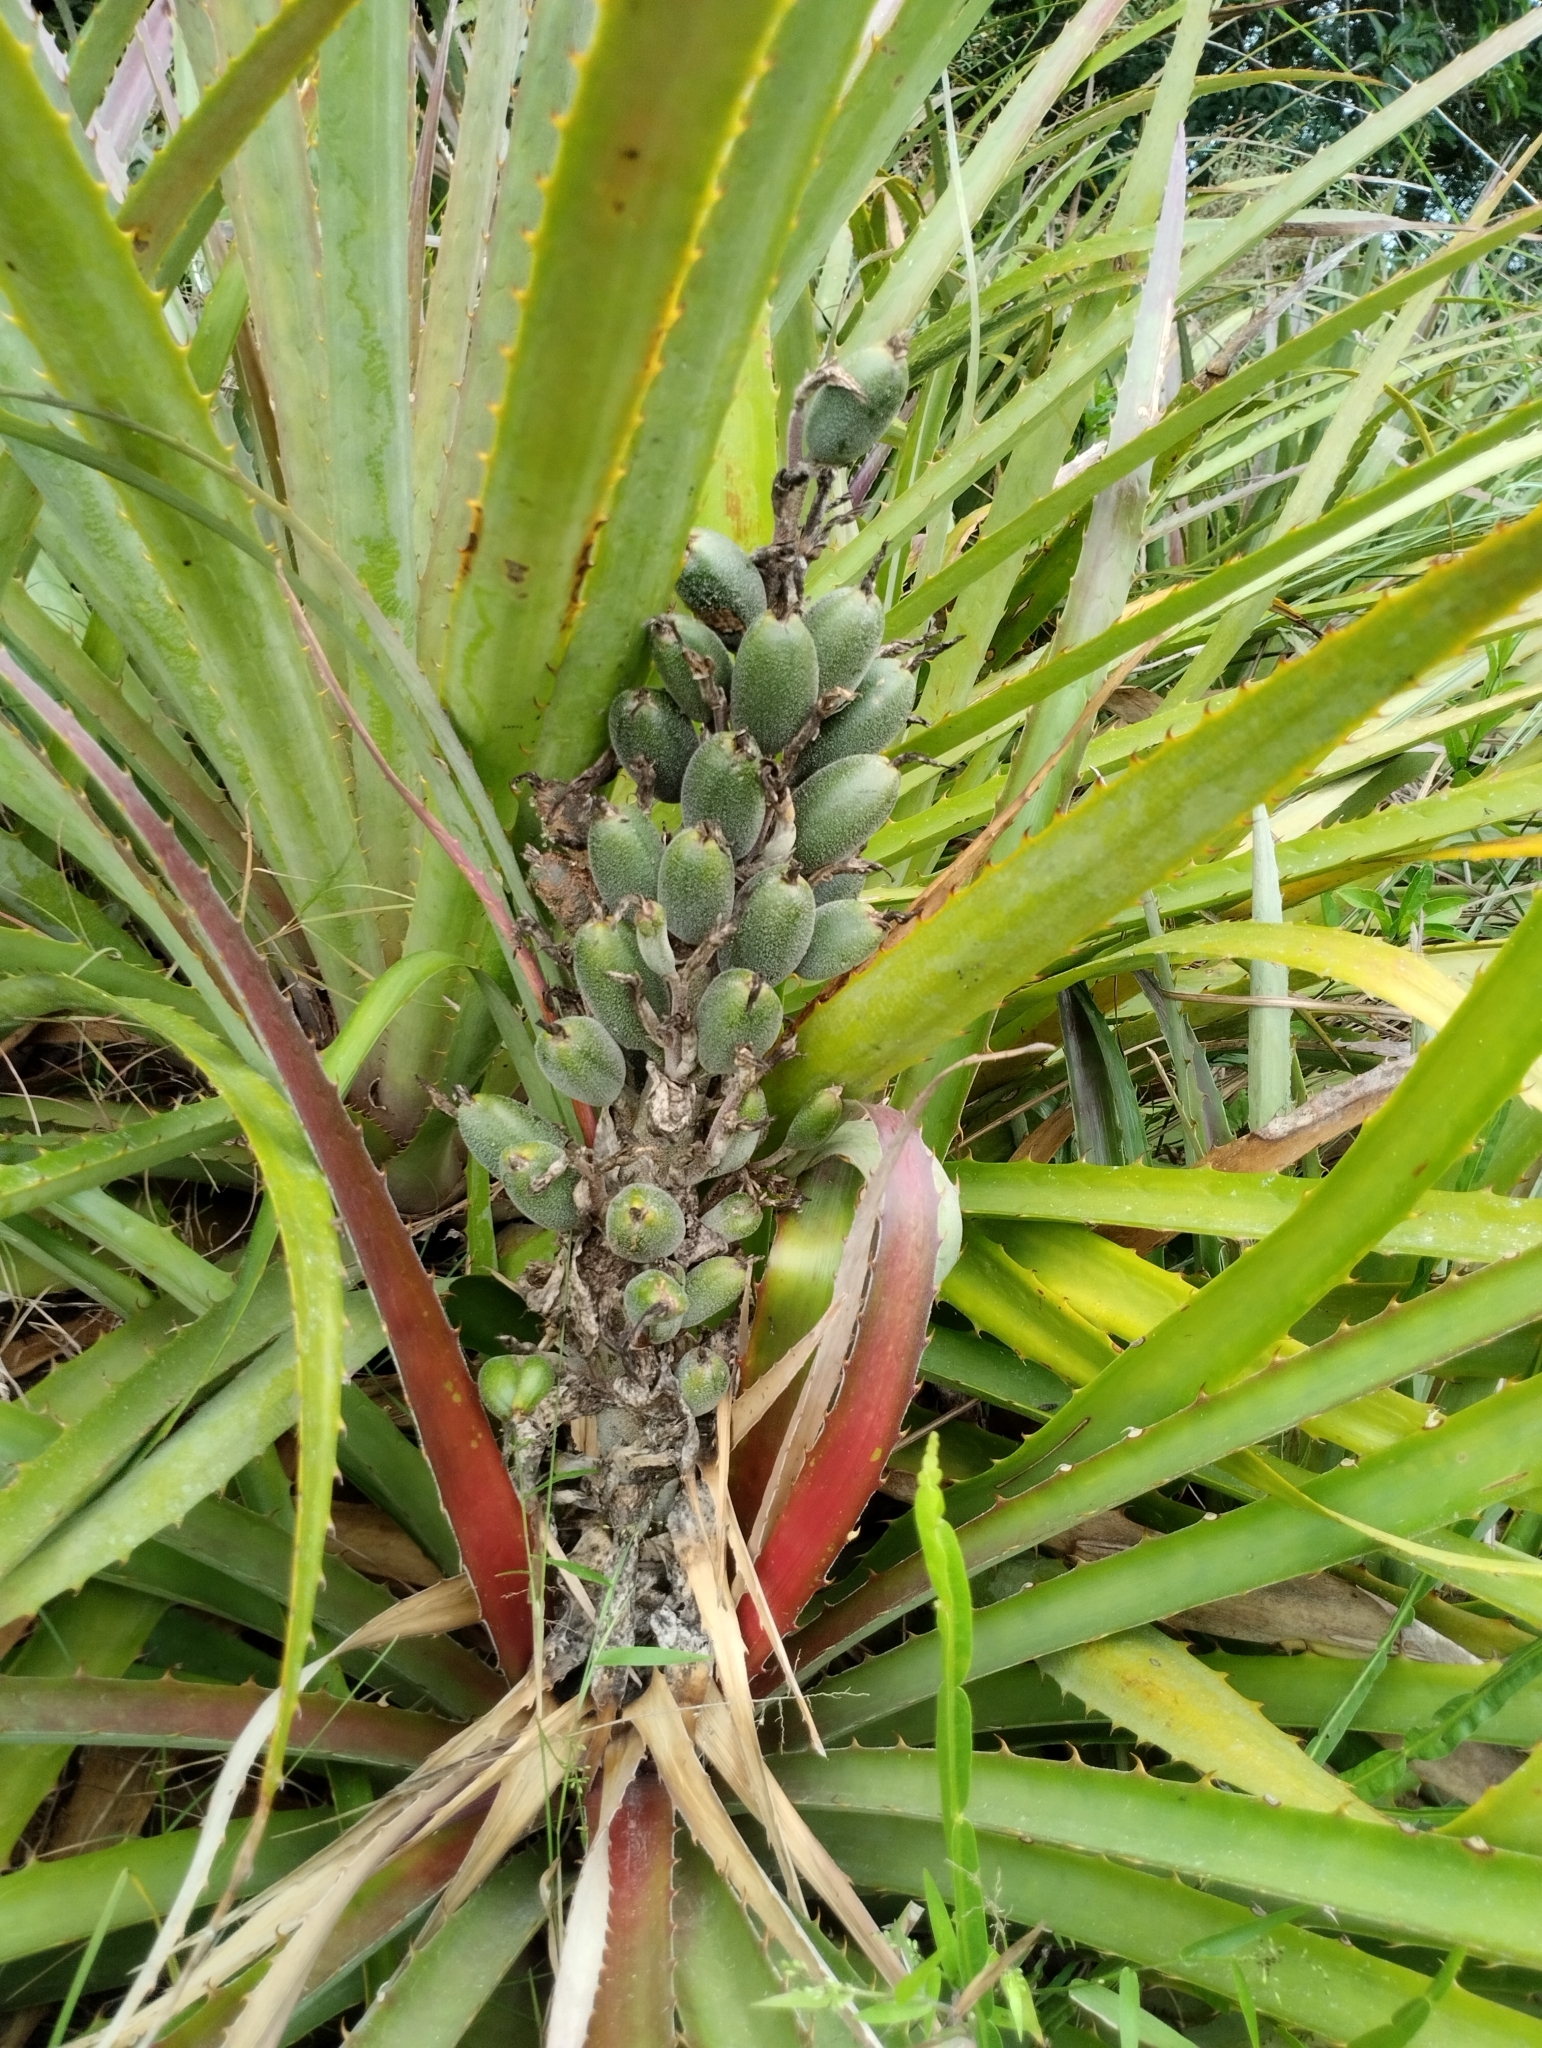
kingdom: Plantae
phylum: Tracheophyta
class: Liliopsida
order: Poales
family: Bromeliaceae
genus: Bromelia
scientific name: Bromelia antiacantha
